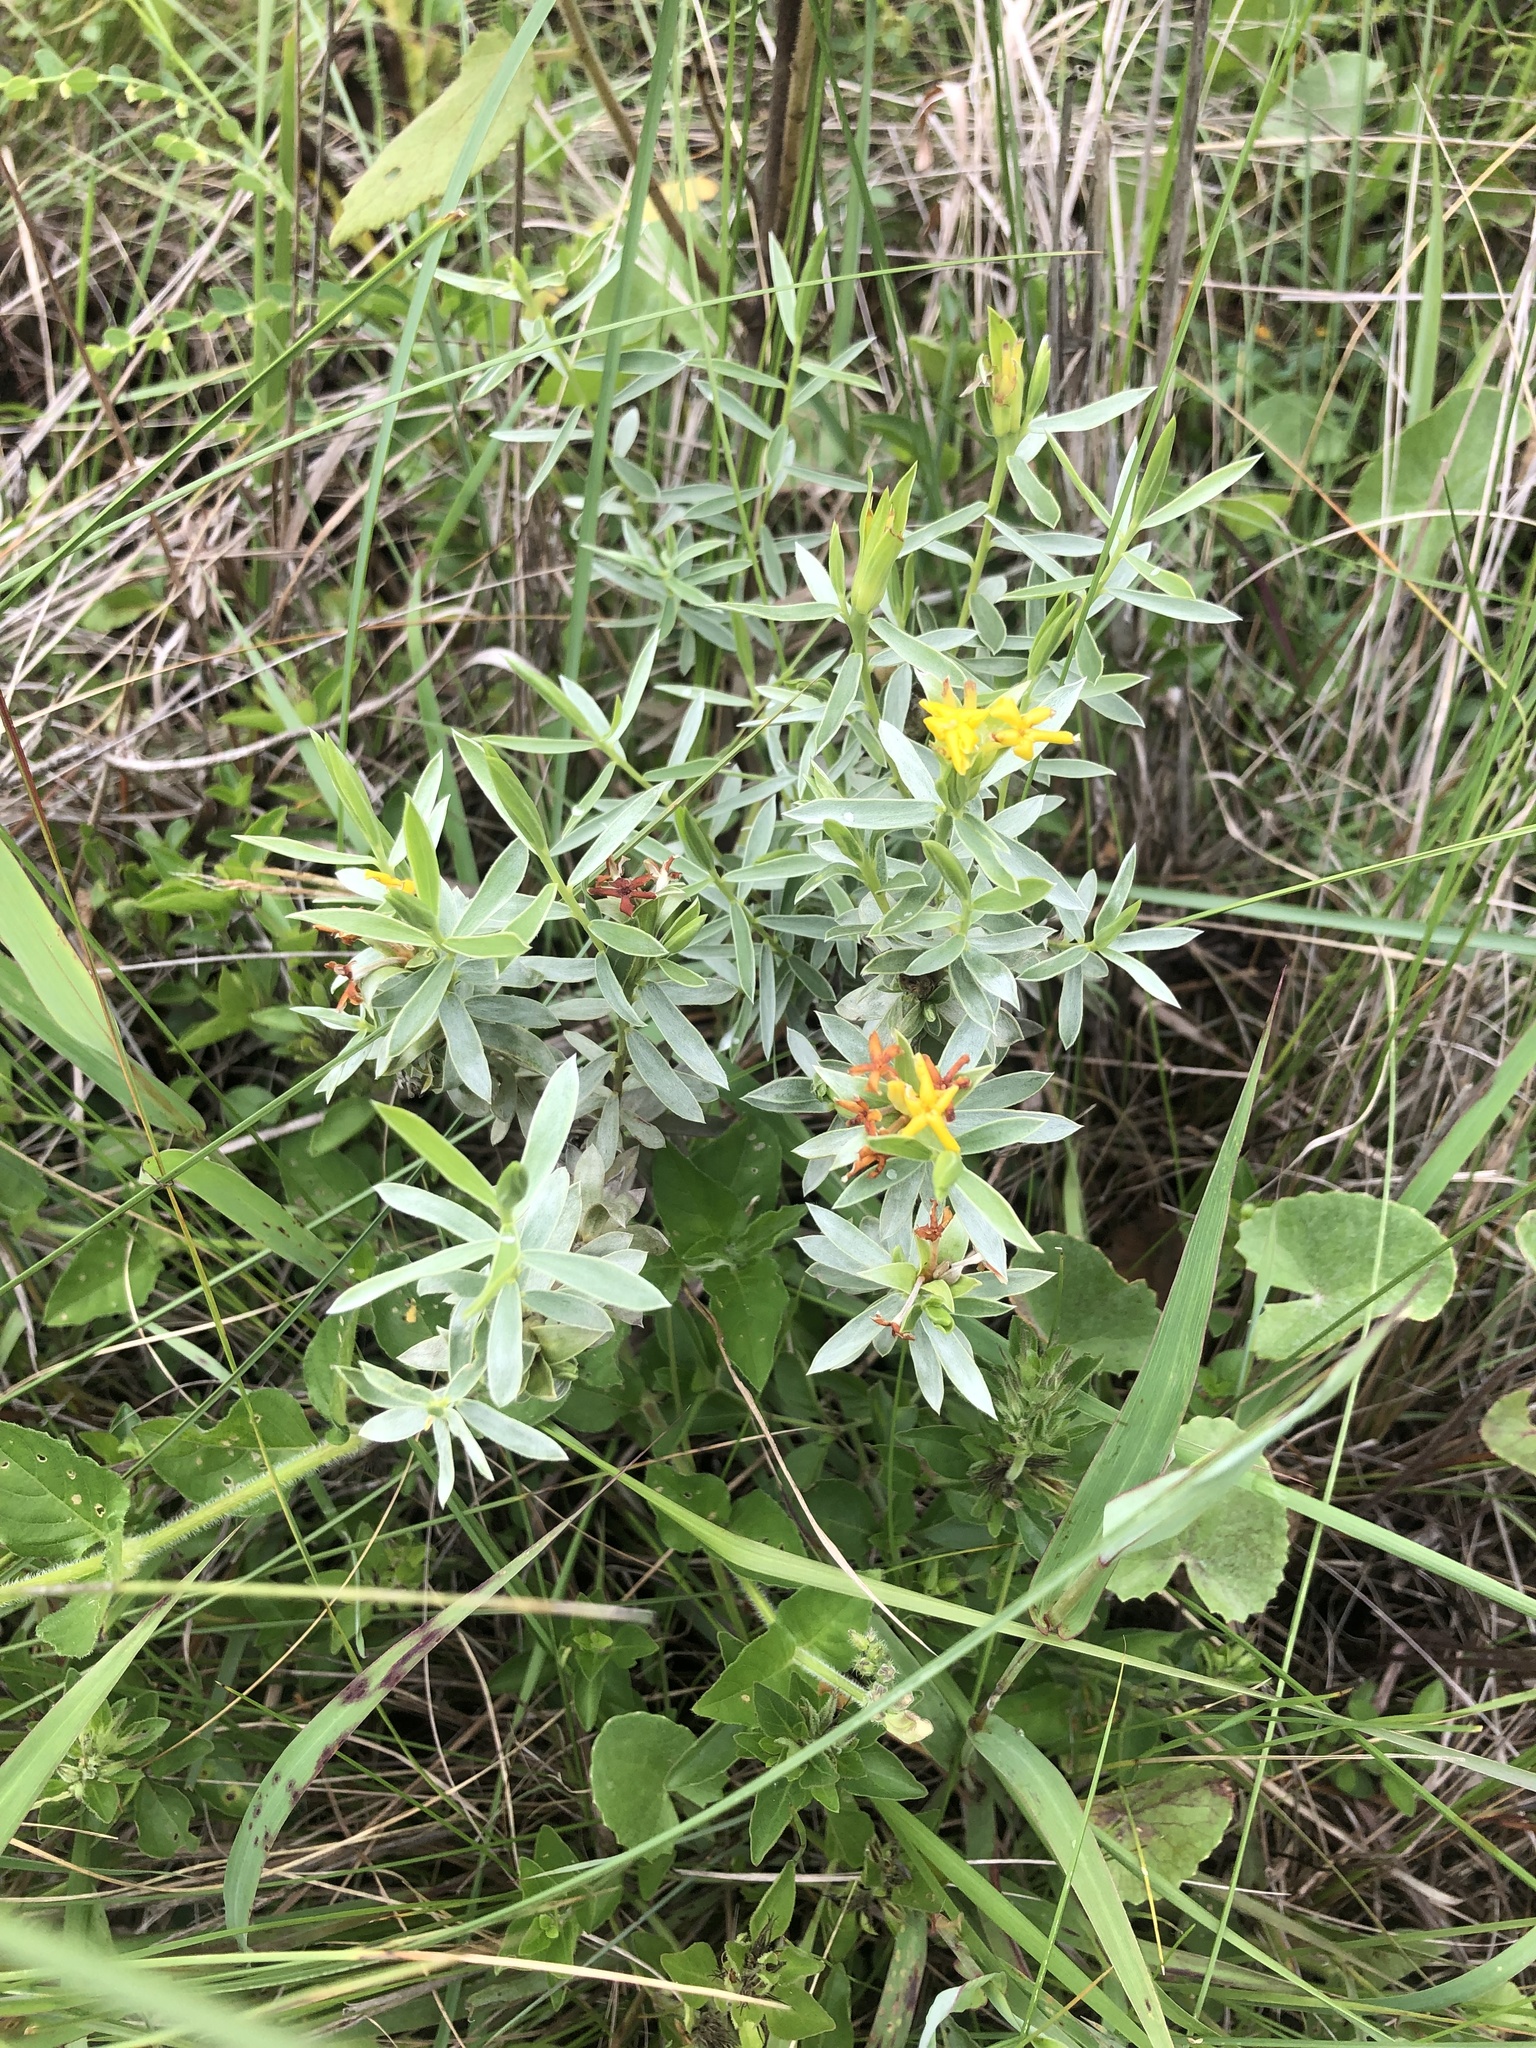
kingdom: Plantae
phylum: Tracheophyta
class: Magnoliopsida
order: Malvales
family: Thymelaeaceae
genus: Gnidia
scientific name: Gnidia splendens
